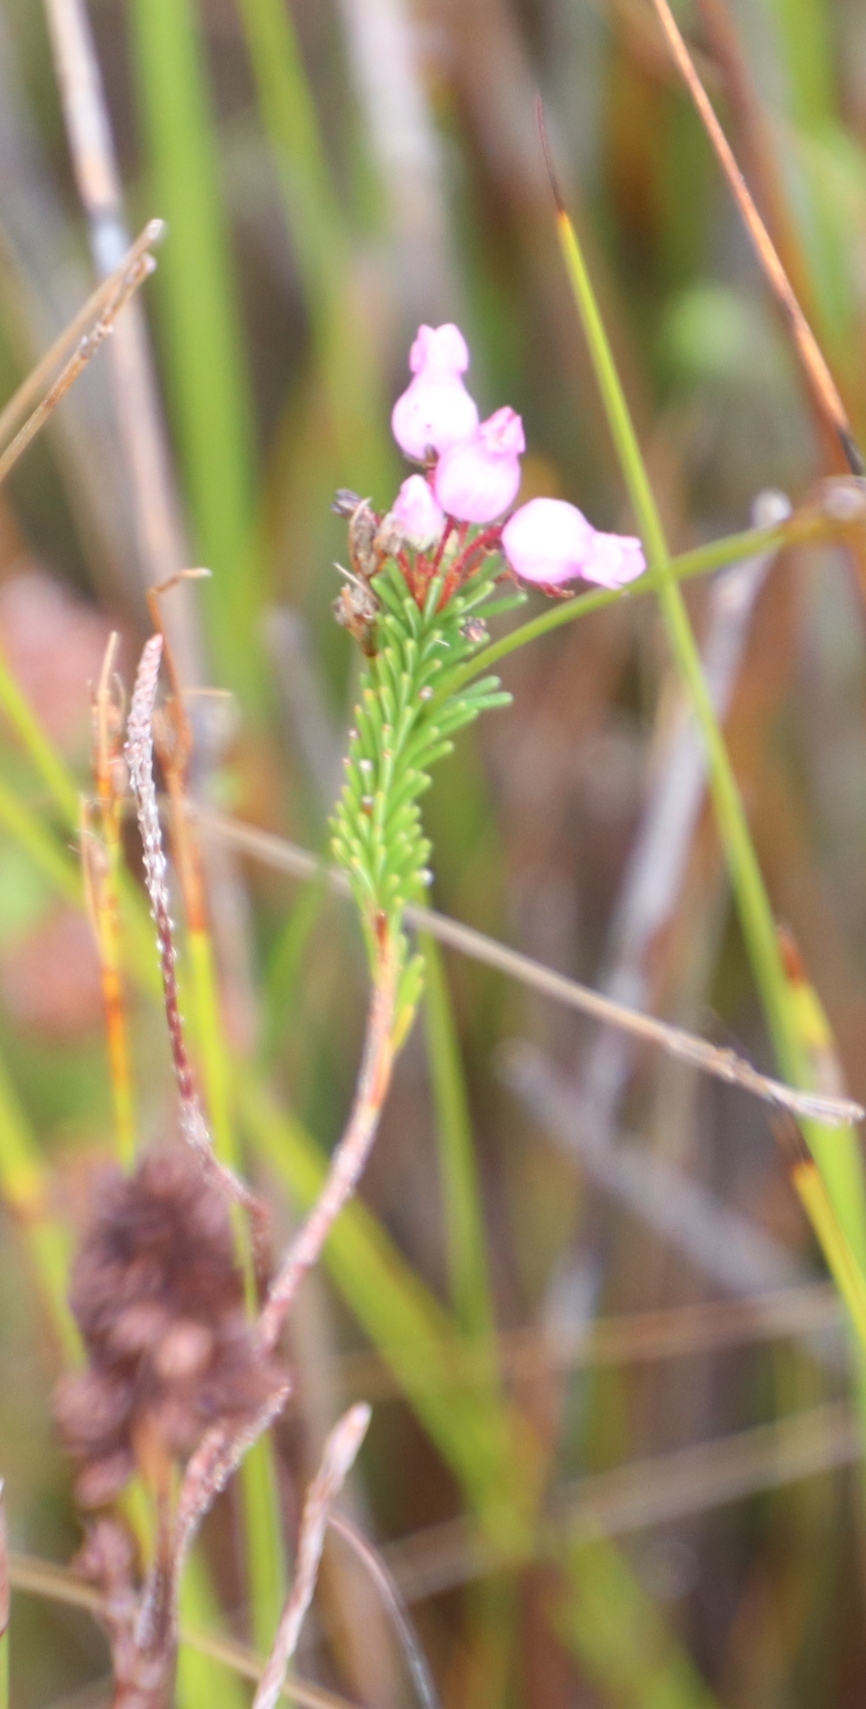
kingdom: Plantae
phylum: Tracheophyta
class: Magnoliopsida
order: Ericales
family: Ericaceae
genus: Erica
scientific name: Erica obliqua
